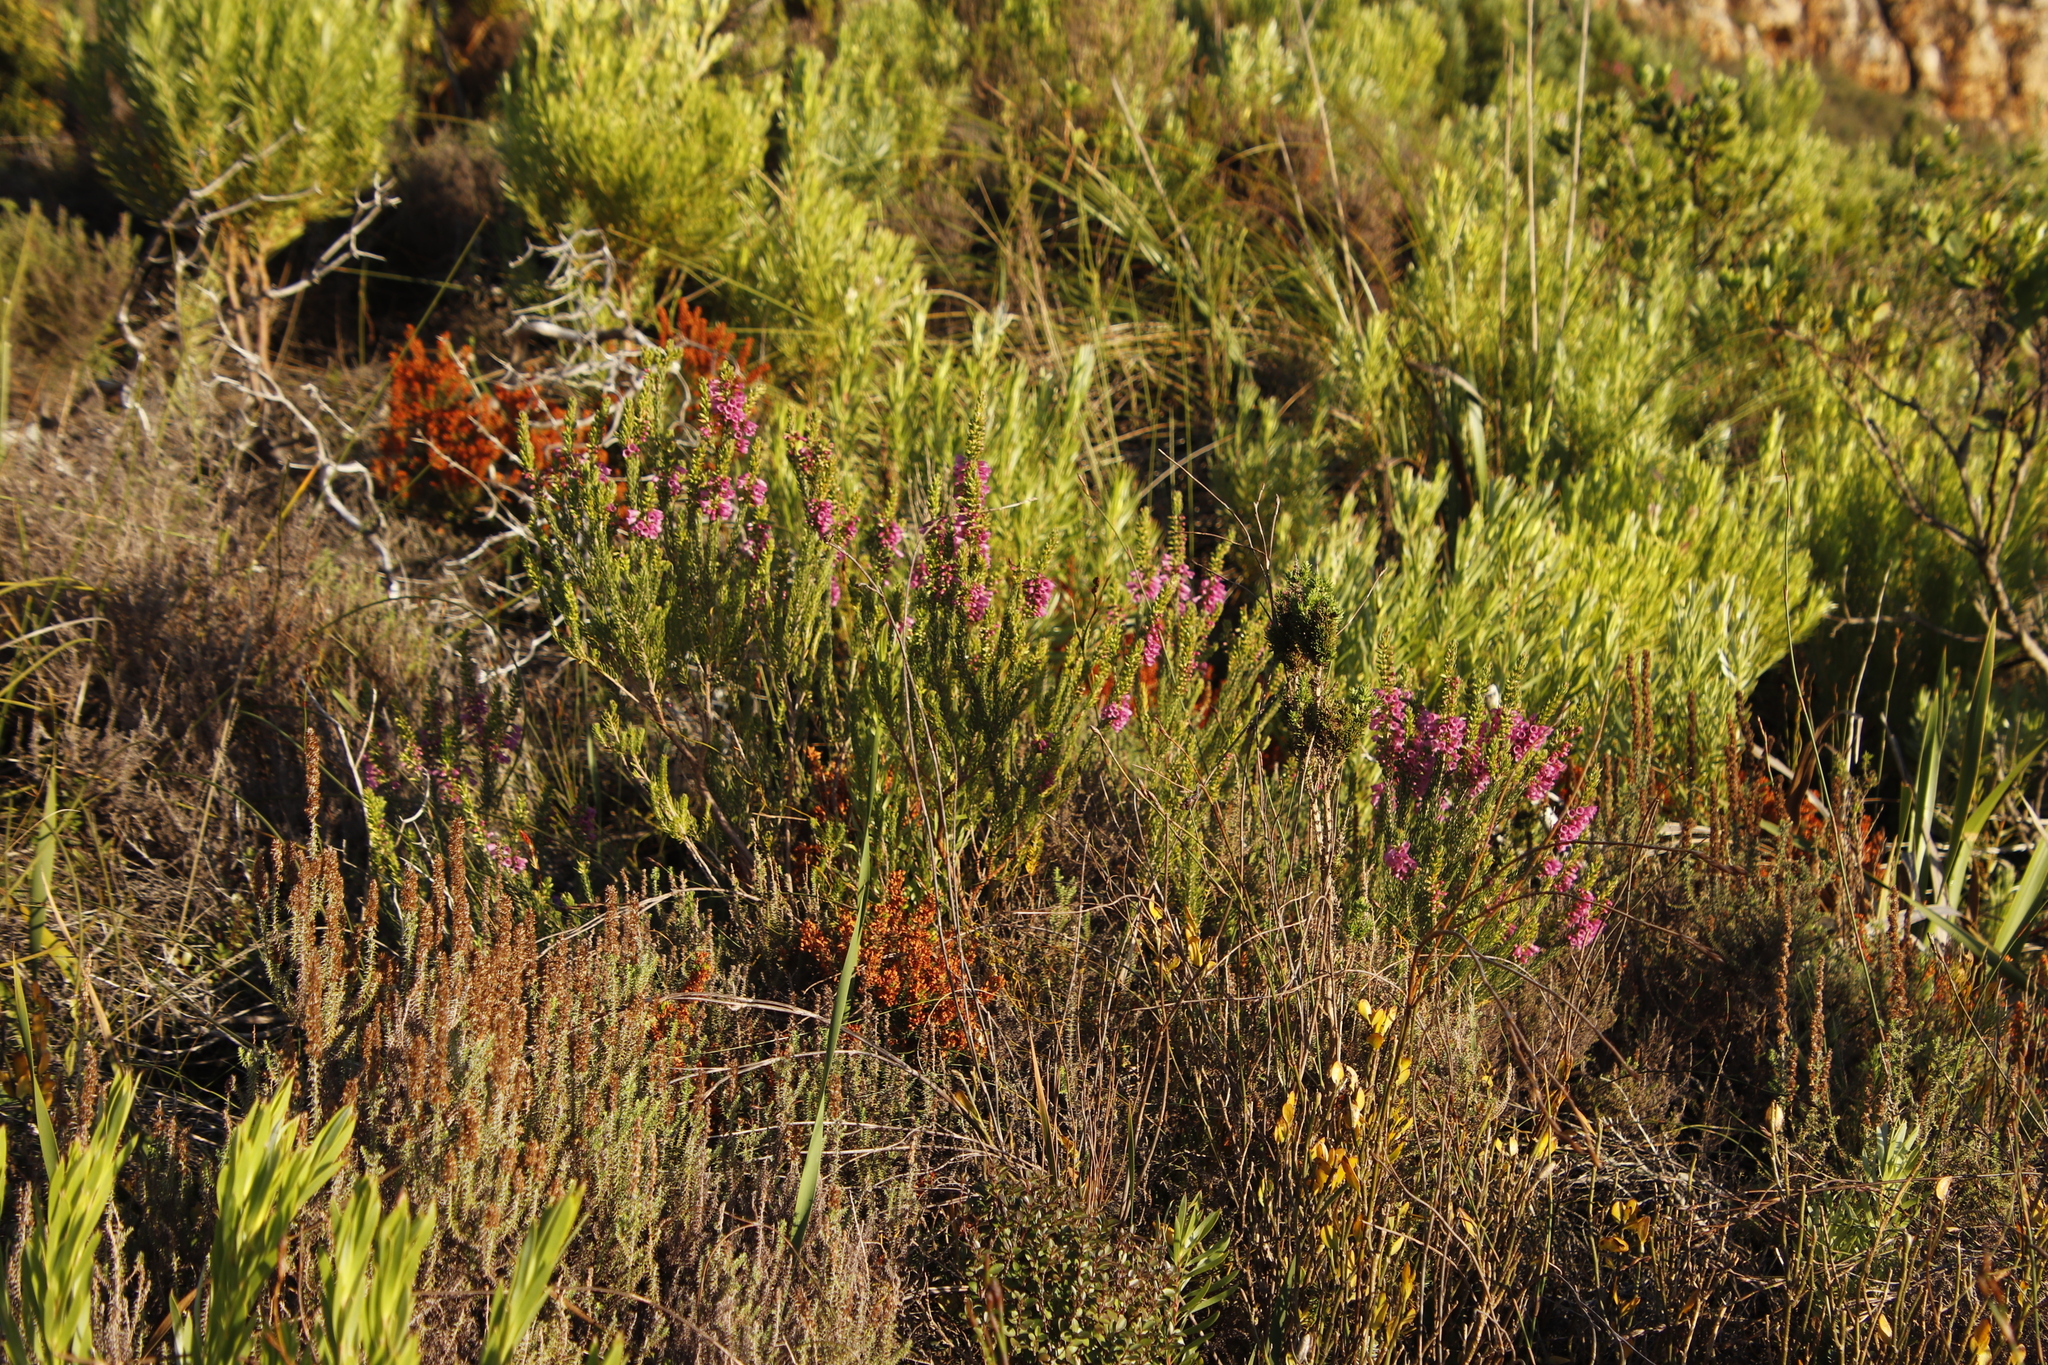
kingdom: Plantae
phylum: Tracheophyta
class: Magnoliopsida
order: Ericales
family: Ericaceae
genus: Erica
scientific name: Erica abietina
